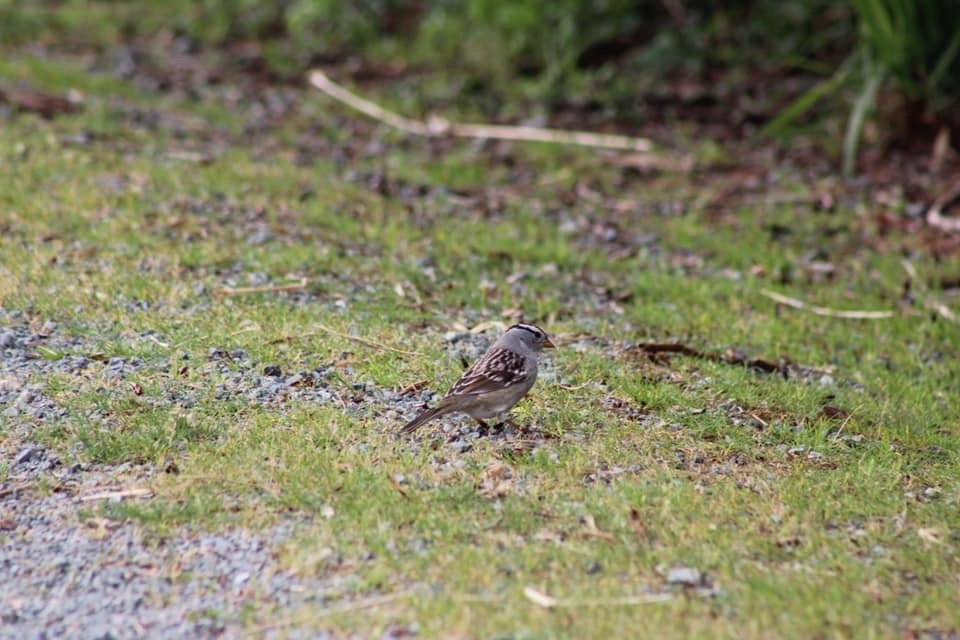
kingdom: Animalia
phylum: Chordata
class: Aves
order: Passeriformes
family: Passerellidae
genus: Zonotrichia
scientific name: Zonotrichia leucophrys
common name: White-crowned sparrow
